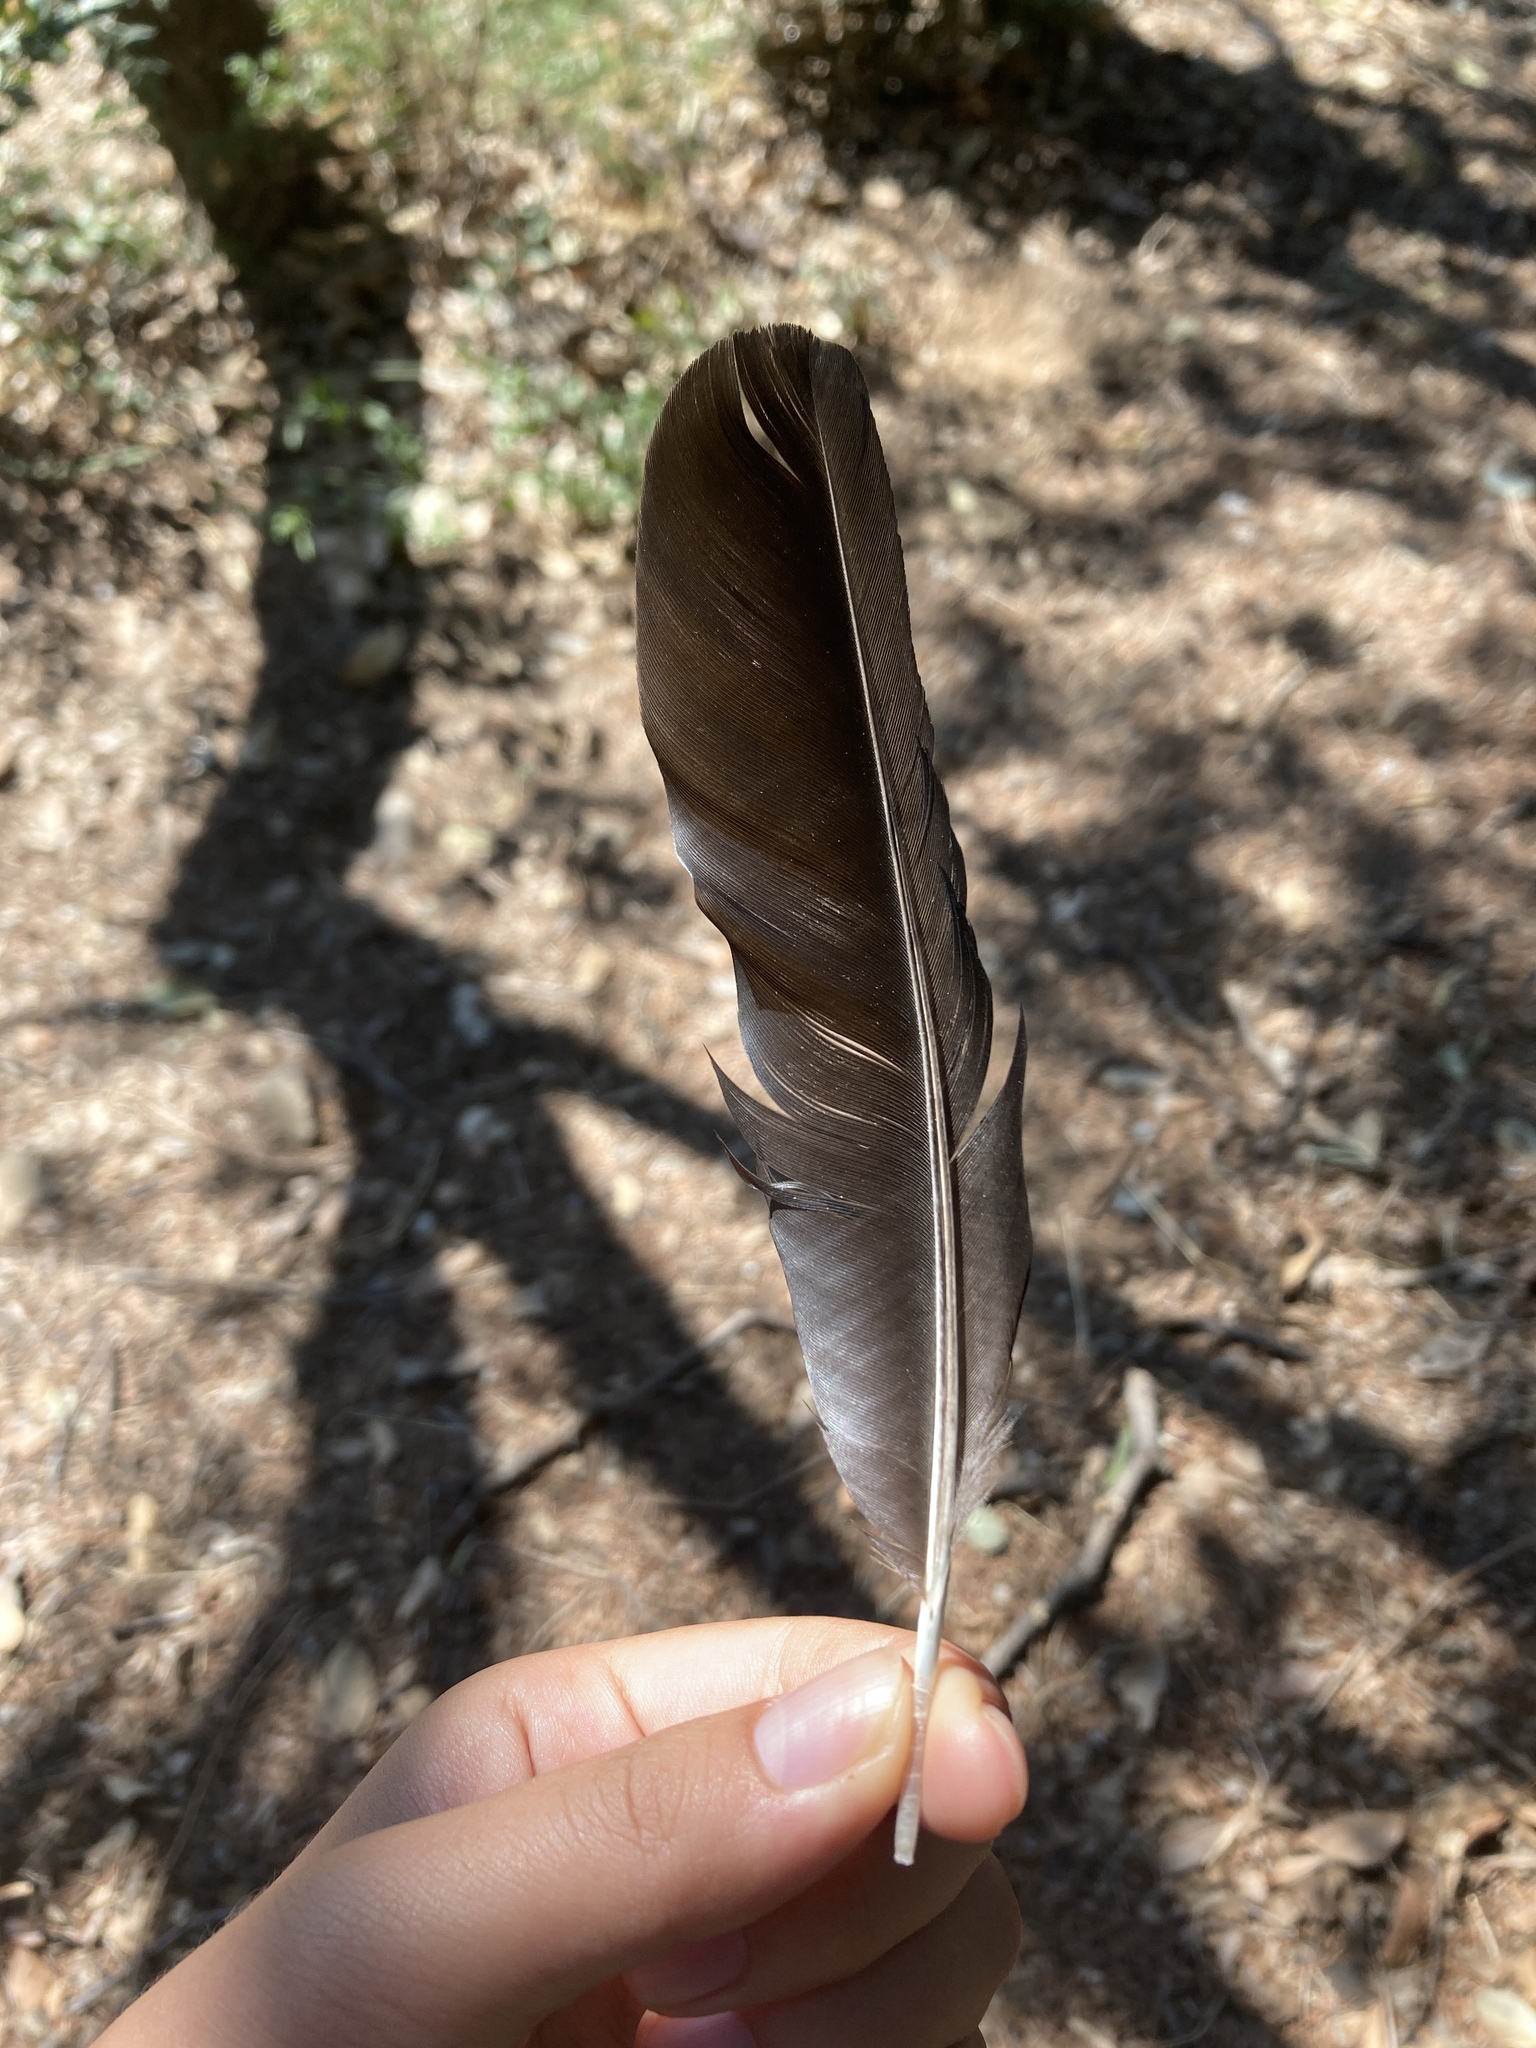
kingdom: Animalia
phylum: Chordata
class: Aves
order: Passeriformes
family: Corvidae
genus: Pica
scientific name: Pica pica
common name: Eurasian magpie
